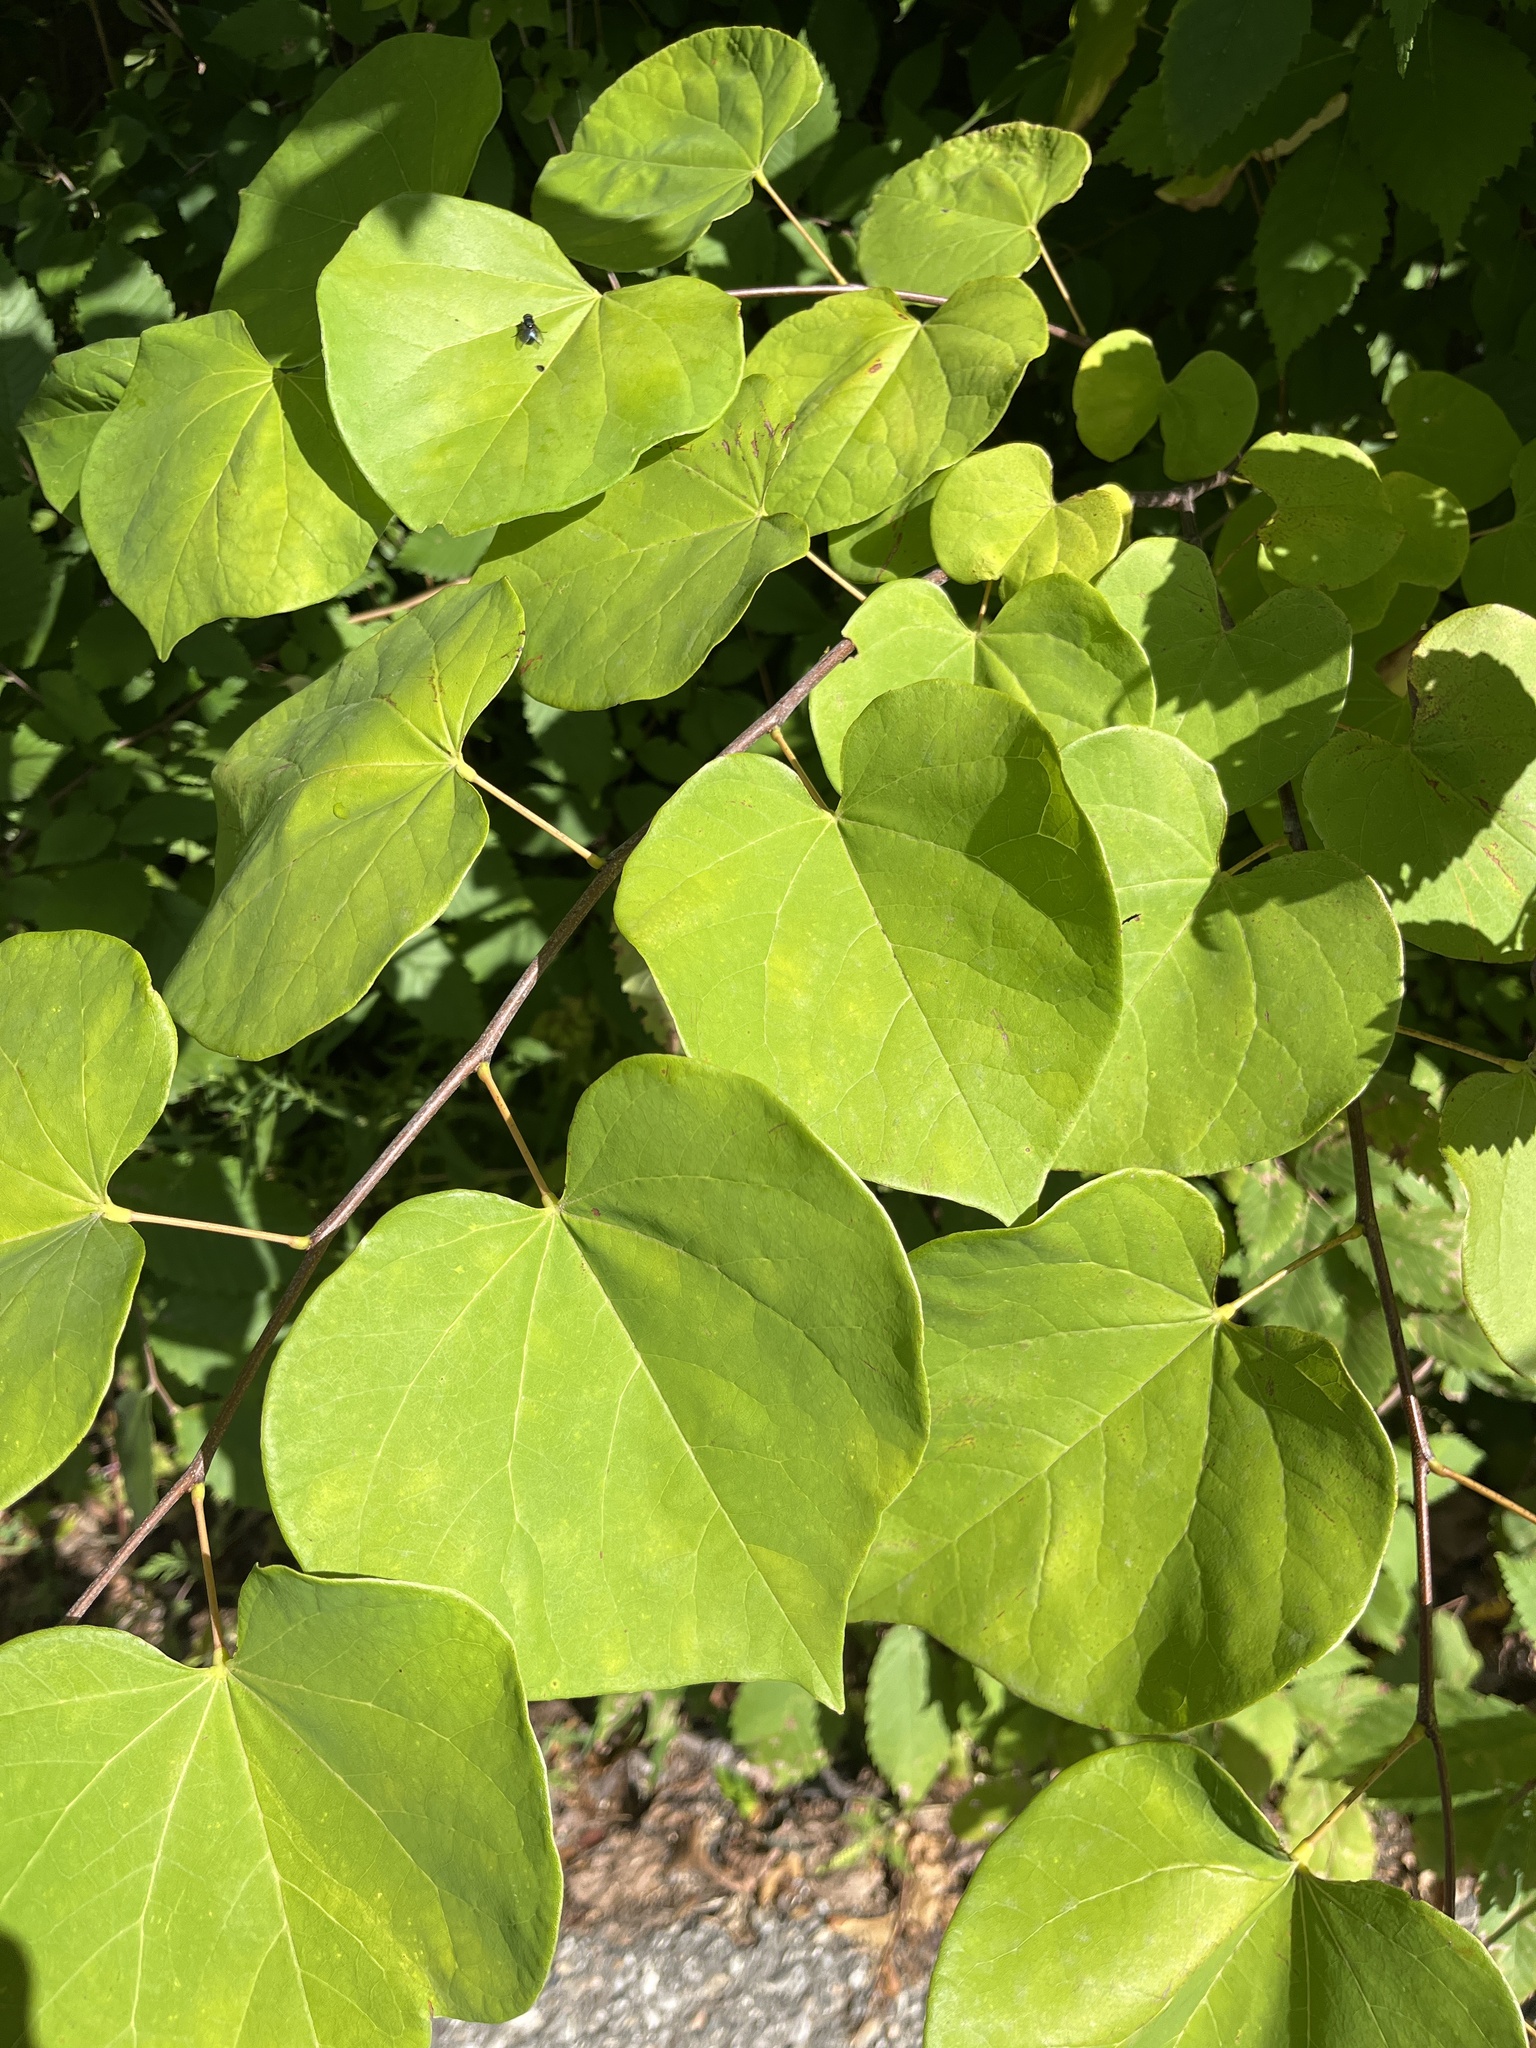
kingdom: Plantae
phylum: Tracheophyta
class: Magnoliopsida
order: Fabales
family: Fabaceae
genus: Cercis
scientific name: Cercis canadensis
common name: Eastern redbud
